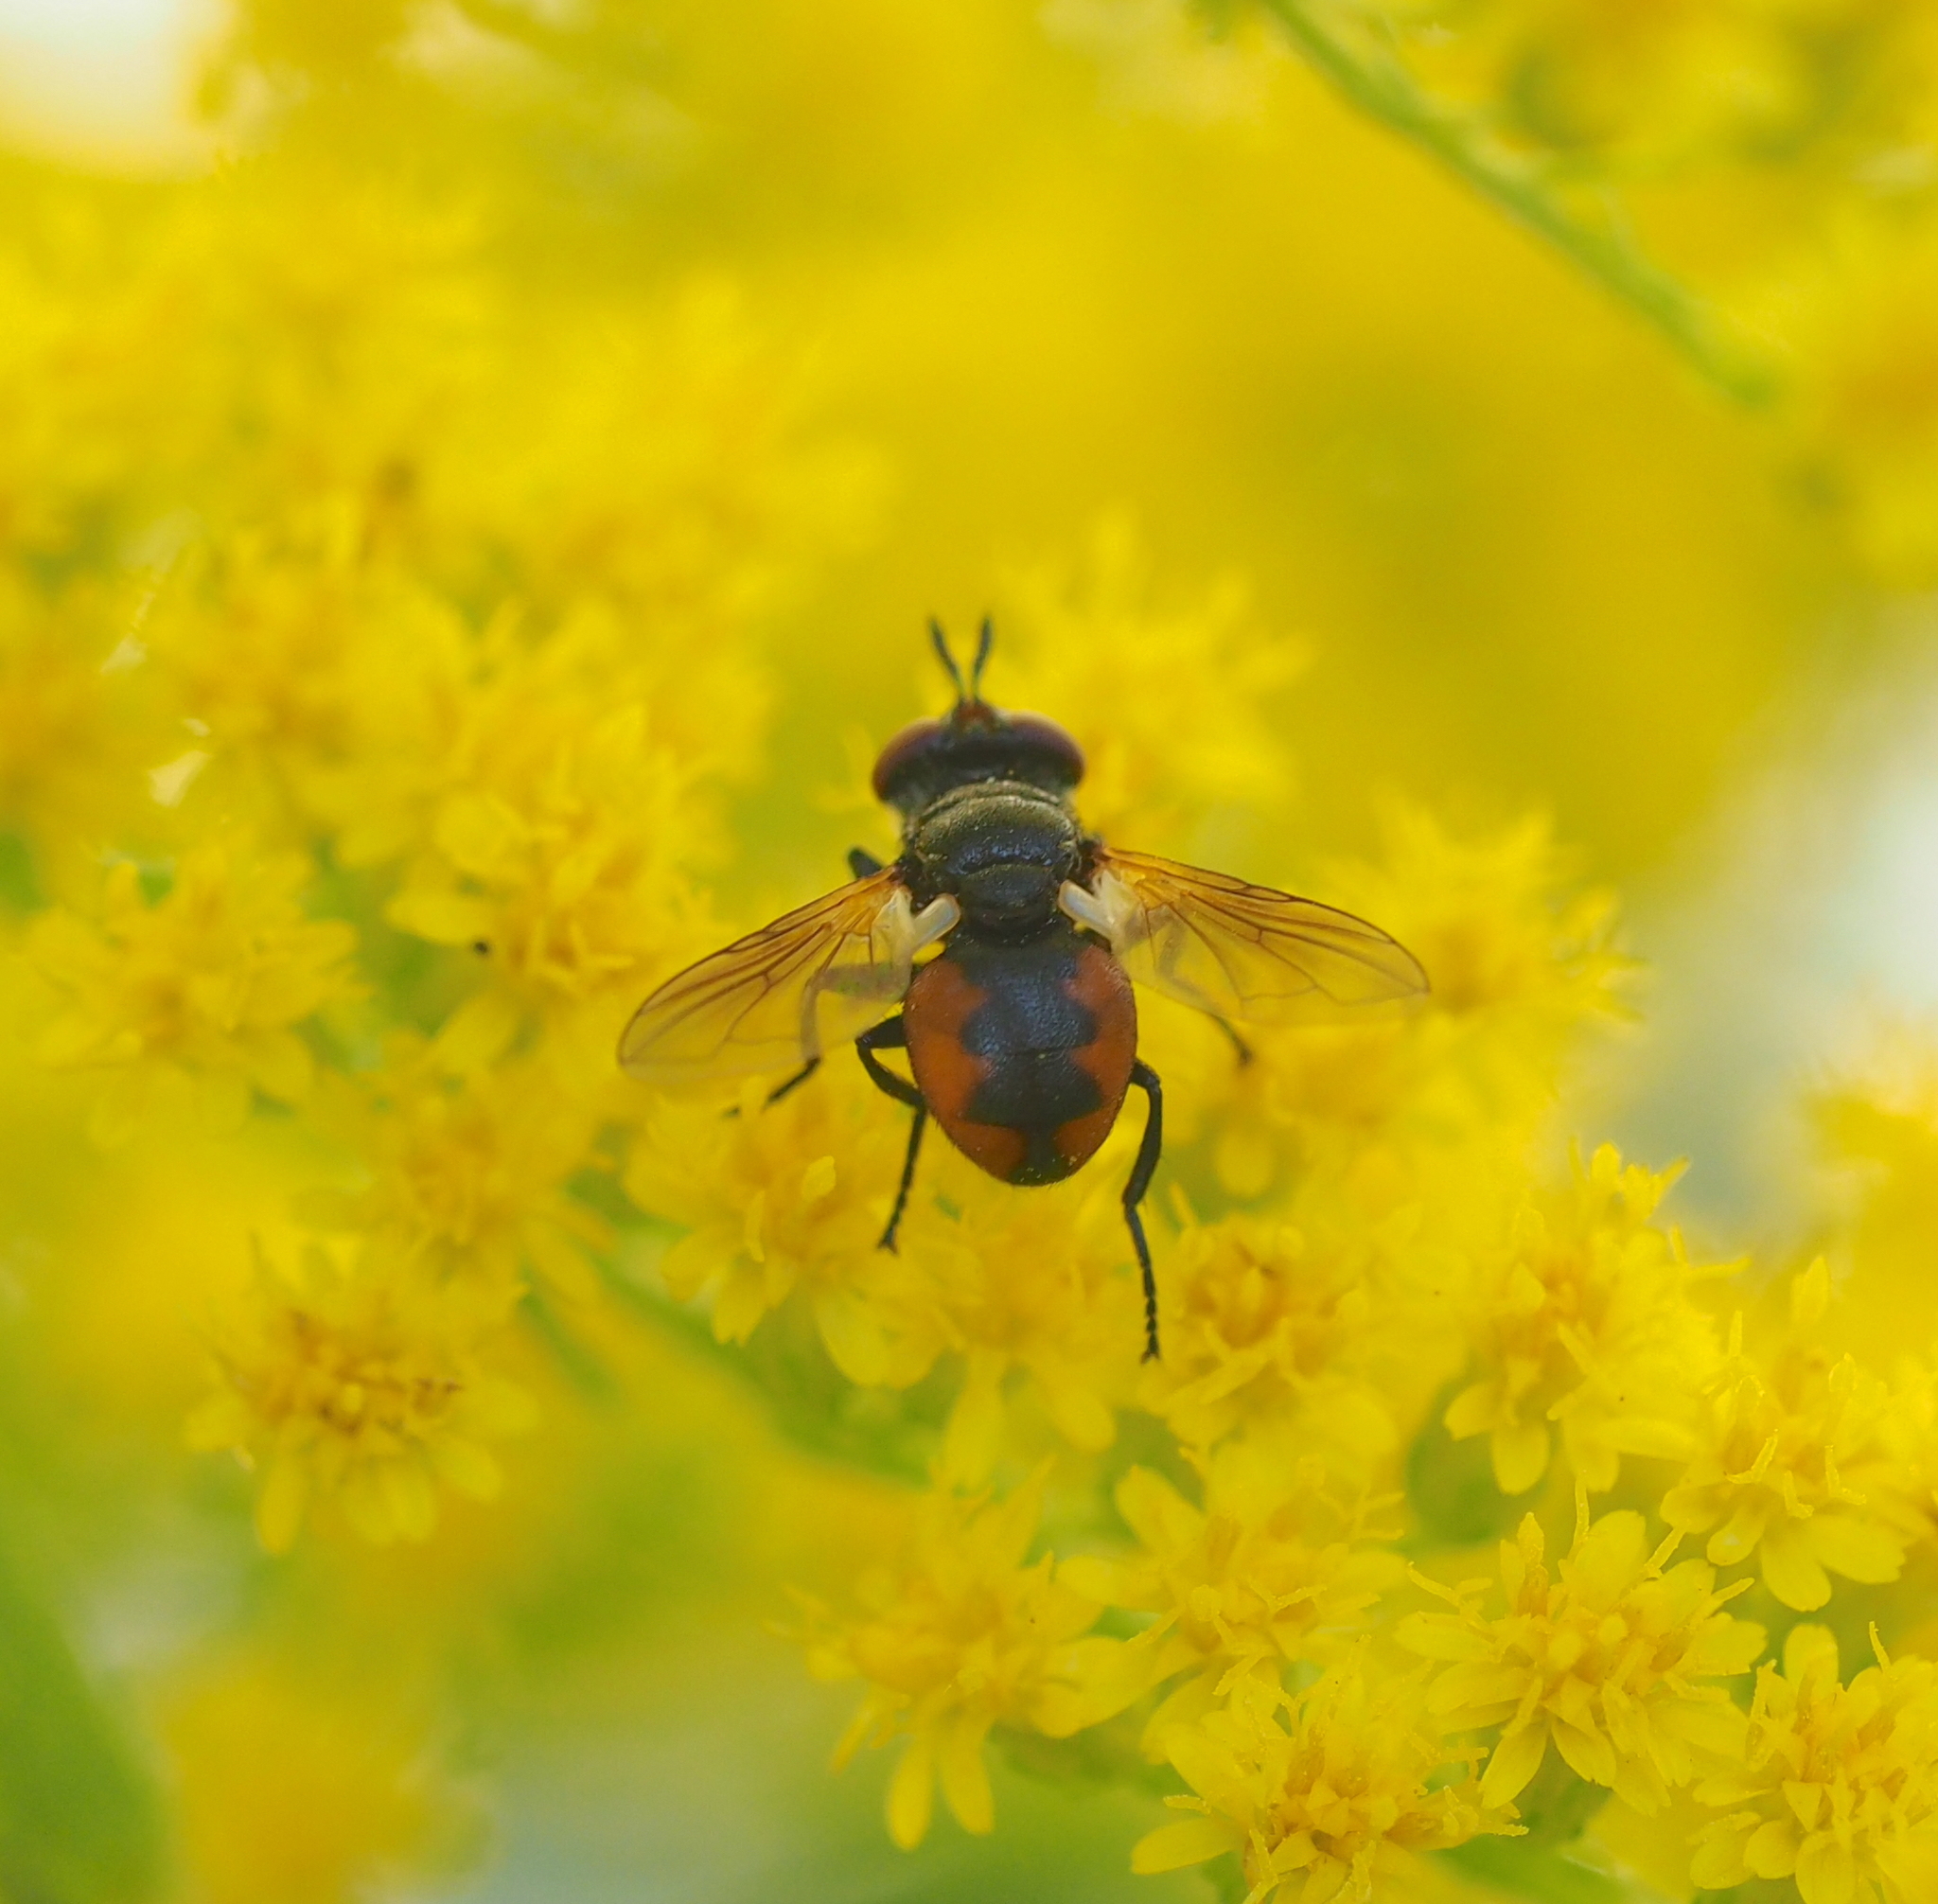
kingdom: Animalia
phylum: Arthropoda
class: Insecta
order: Diptera
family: Tachinidae
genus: Gymnosoma
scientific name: Gymnosoma nudifrons
